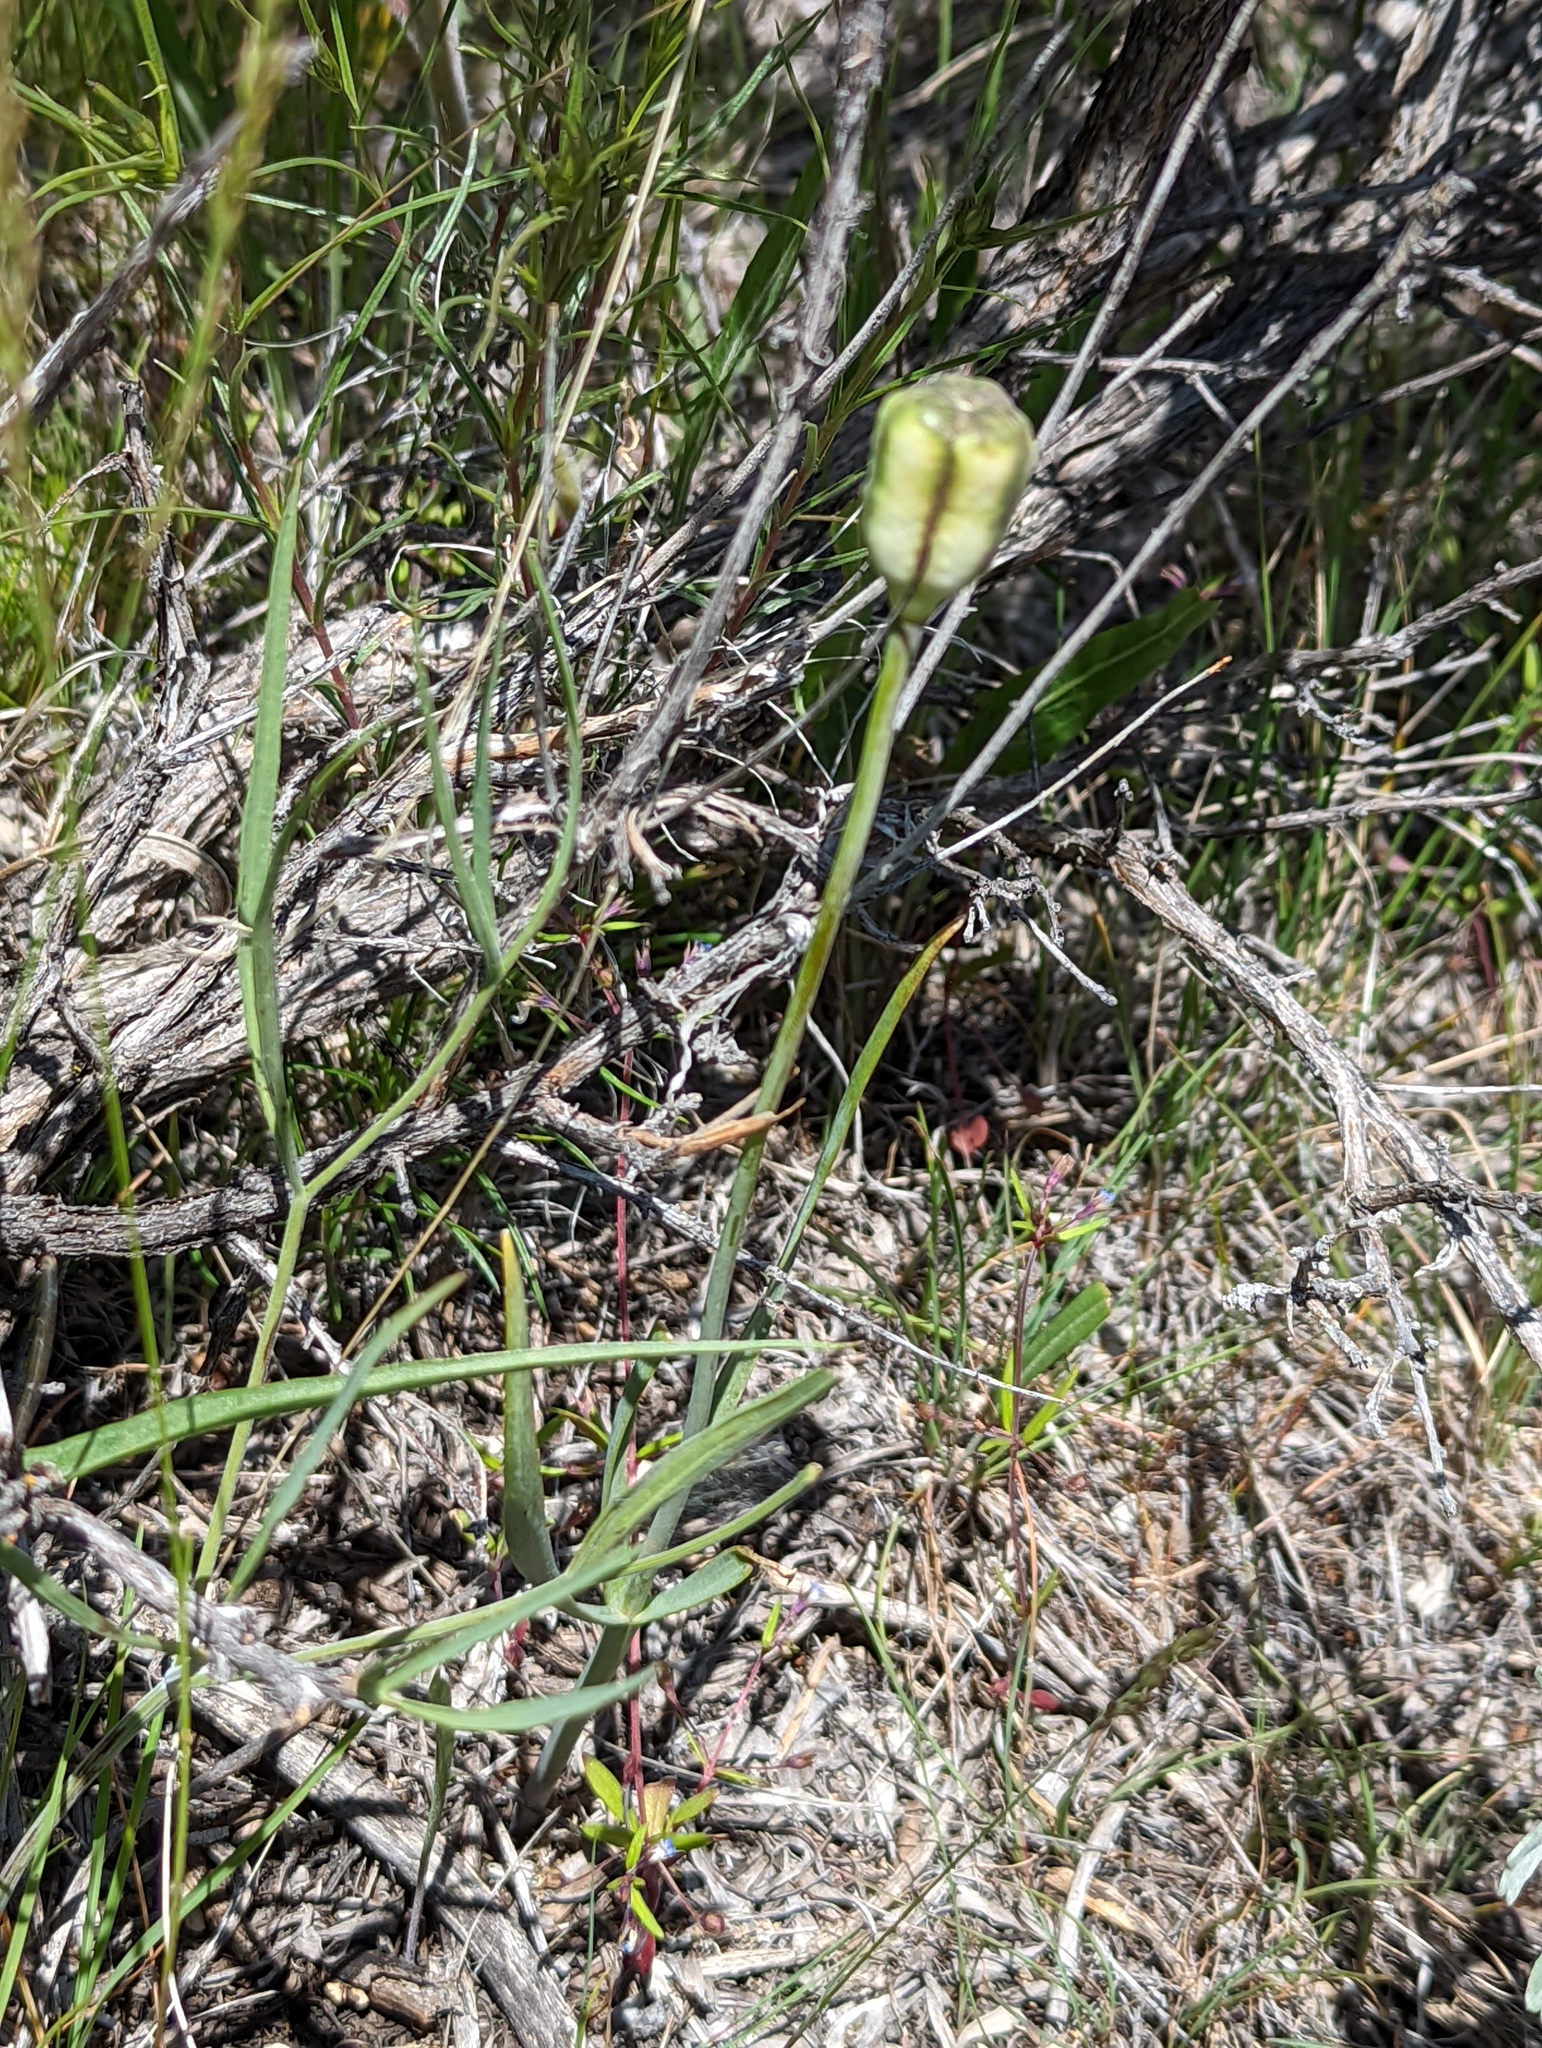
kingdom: Plantae
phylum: Tracheophyta
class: Liliopsida
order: Liliales
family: Liliaceae
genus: Fritillaria
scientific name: Fritillaria pudica
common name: Yellow fritillary
